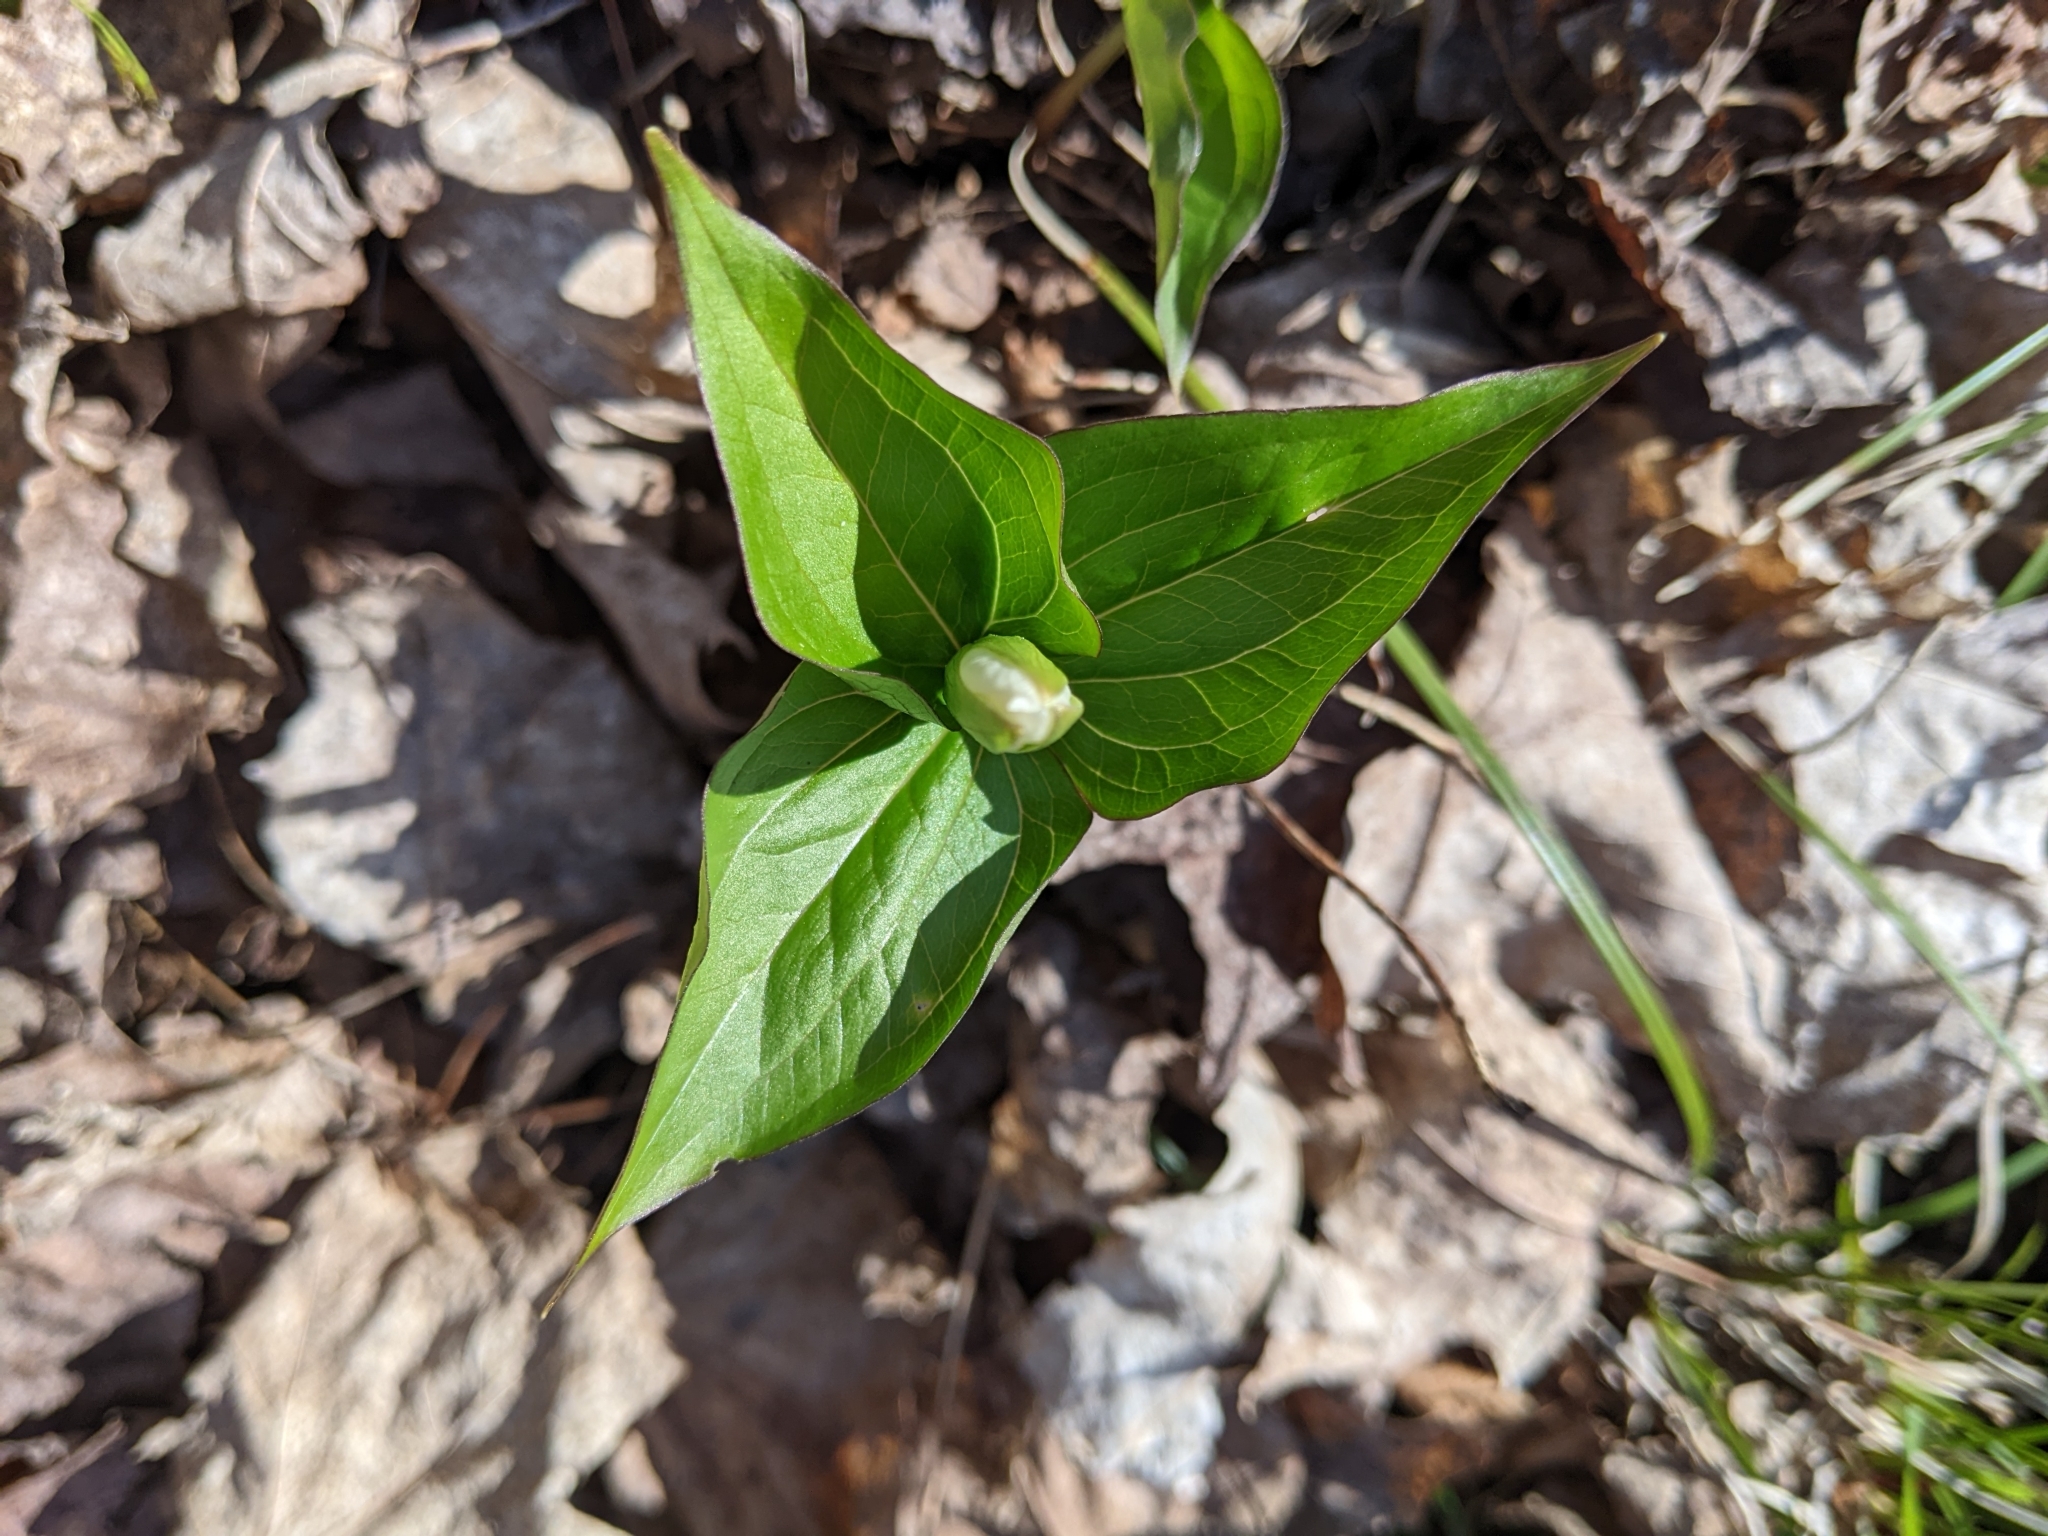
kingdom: Plantae
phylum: Tracheophyta
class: Liliopsida
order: Liliales
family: Melanthiaceae
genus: Trillium
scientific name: Trillium grandiflorum
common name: Great white trillium
